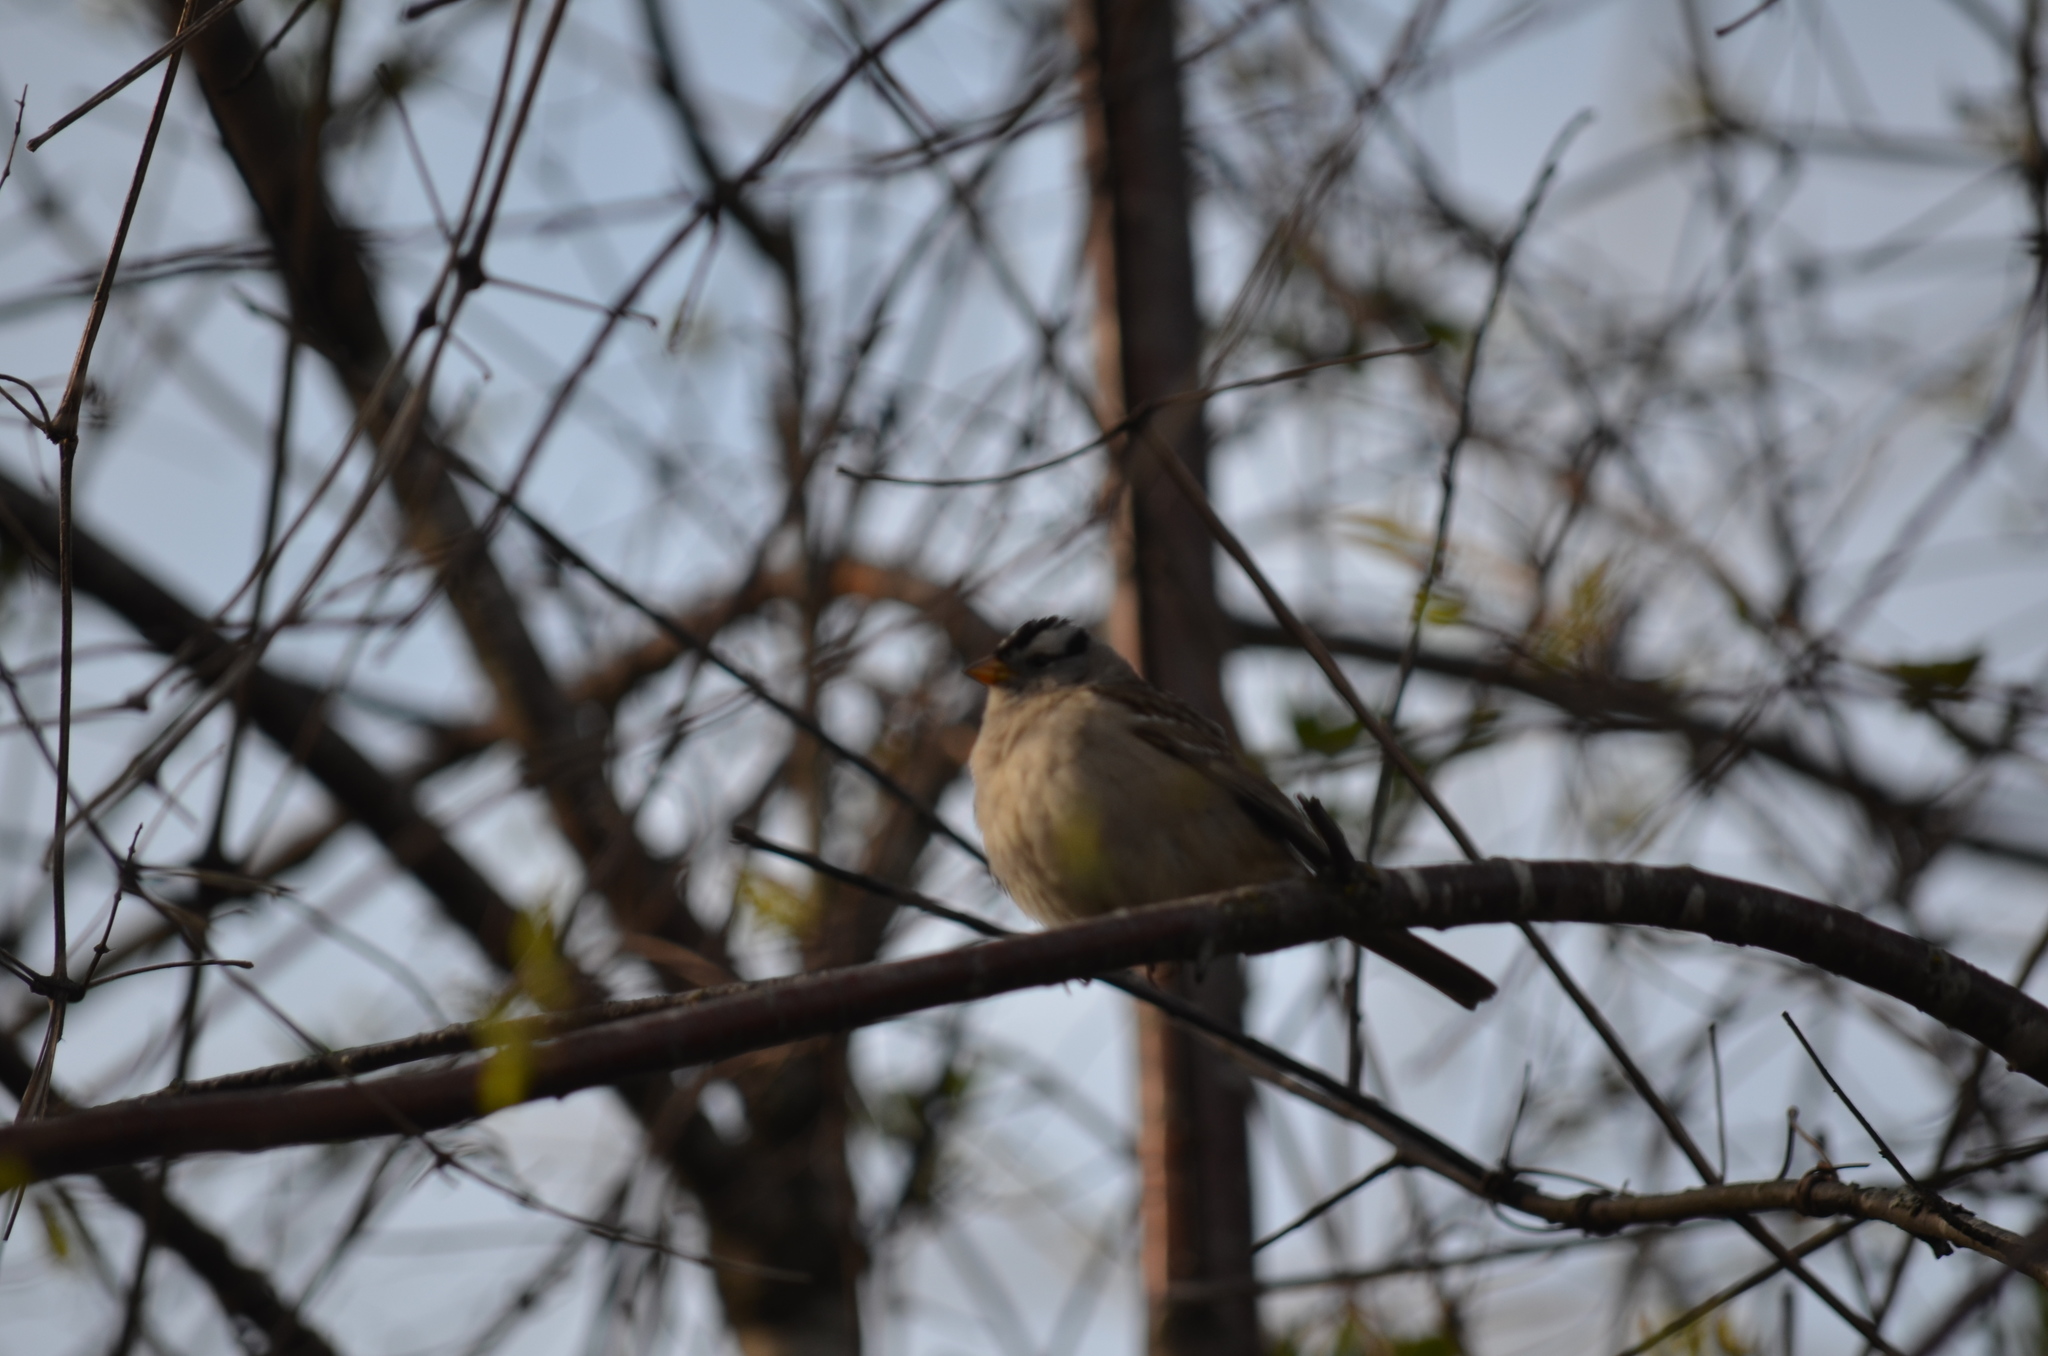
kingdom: Animalia
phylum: Chordata
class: Aves
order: Passeriformes
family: Passerellidae
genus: Zonotrichia
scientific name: Zonotrichia leucophrys
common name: White-crowned sparrow
